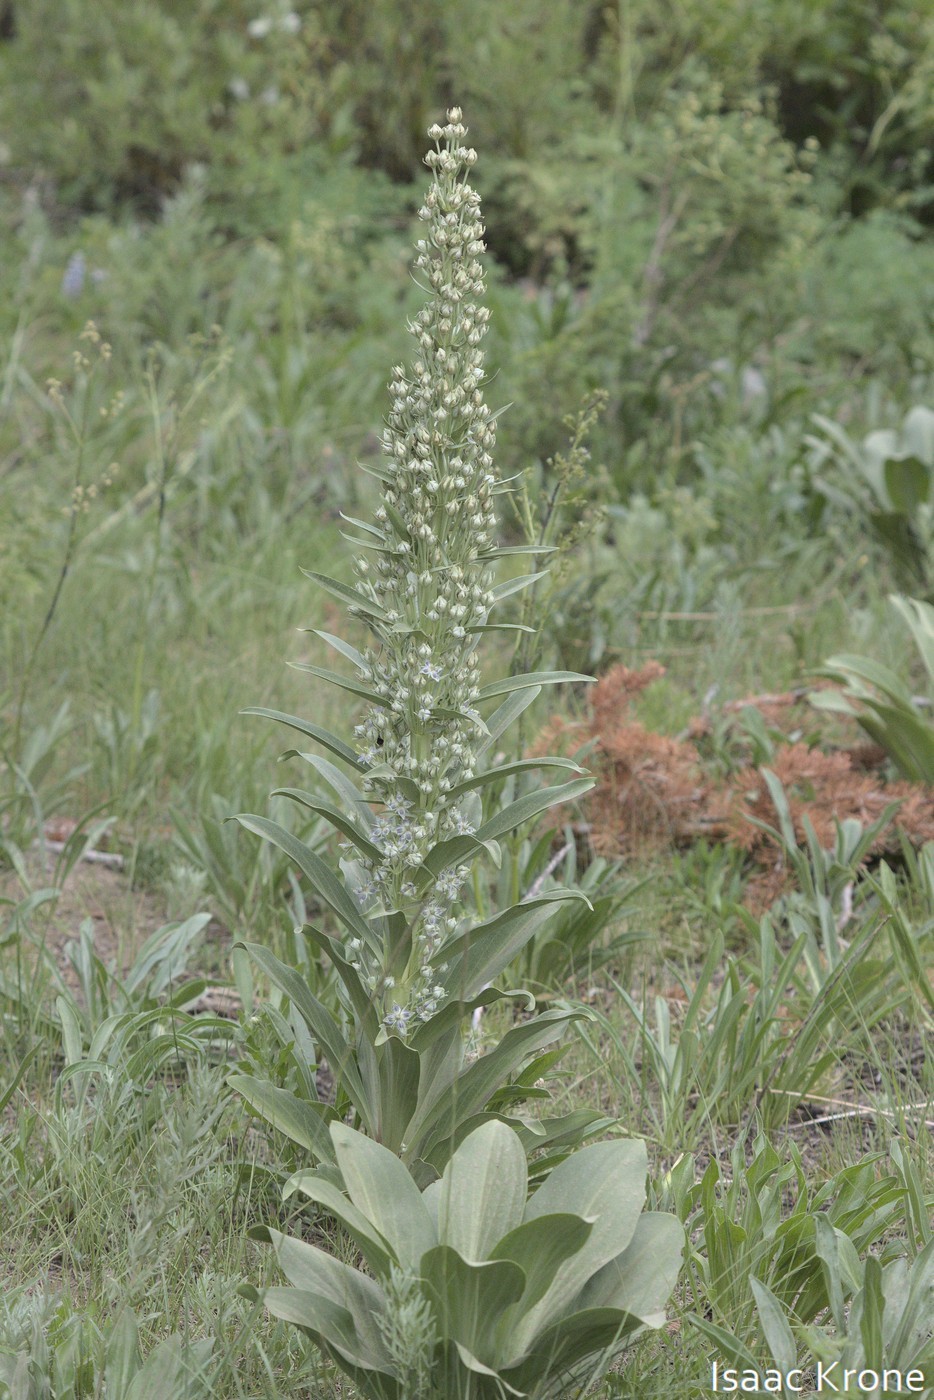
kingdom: Plantae
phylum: Tracheophyta
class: Magnoliopsida
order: Gentianales
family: Gentianaceae
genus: Frasera
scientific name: Frasera speciosa
